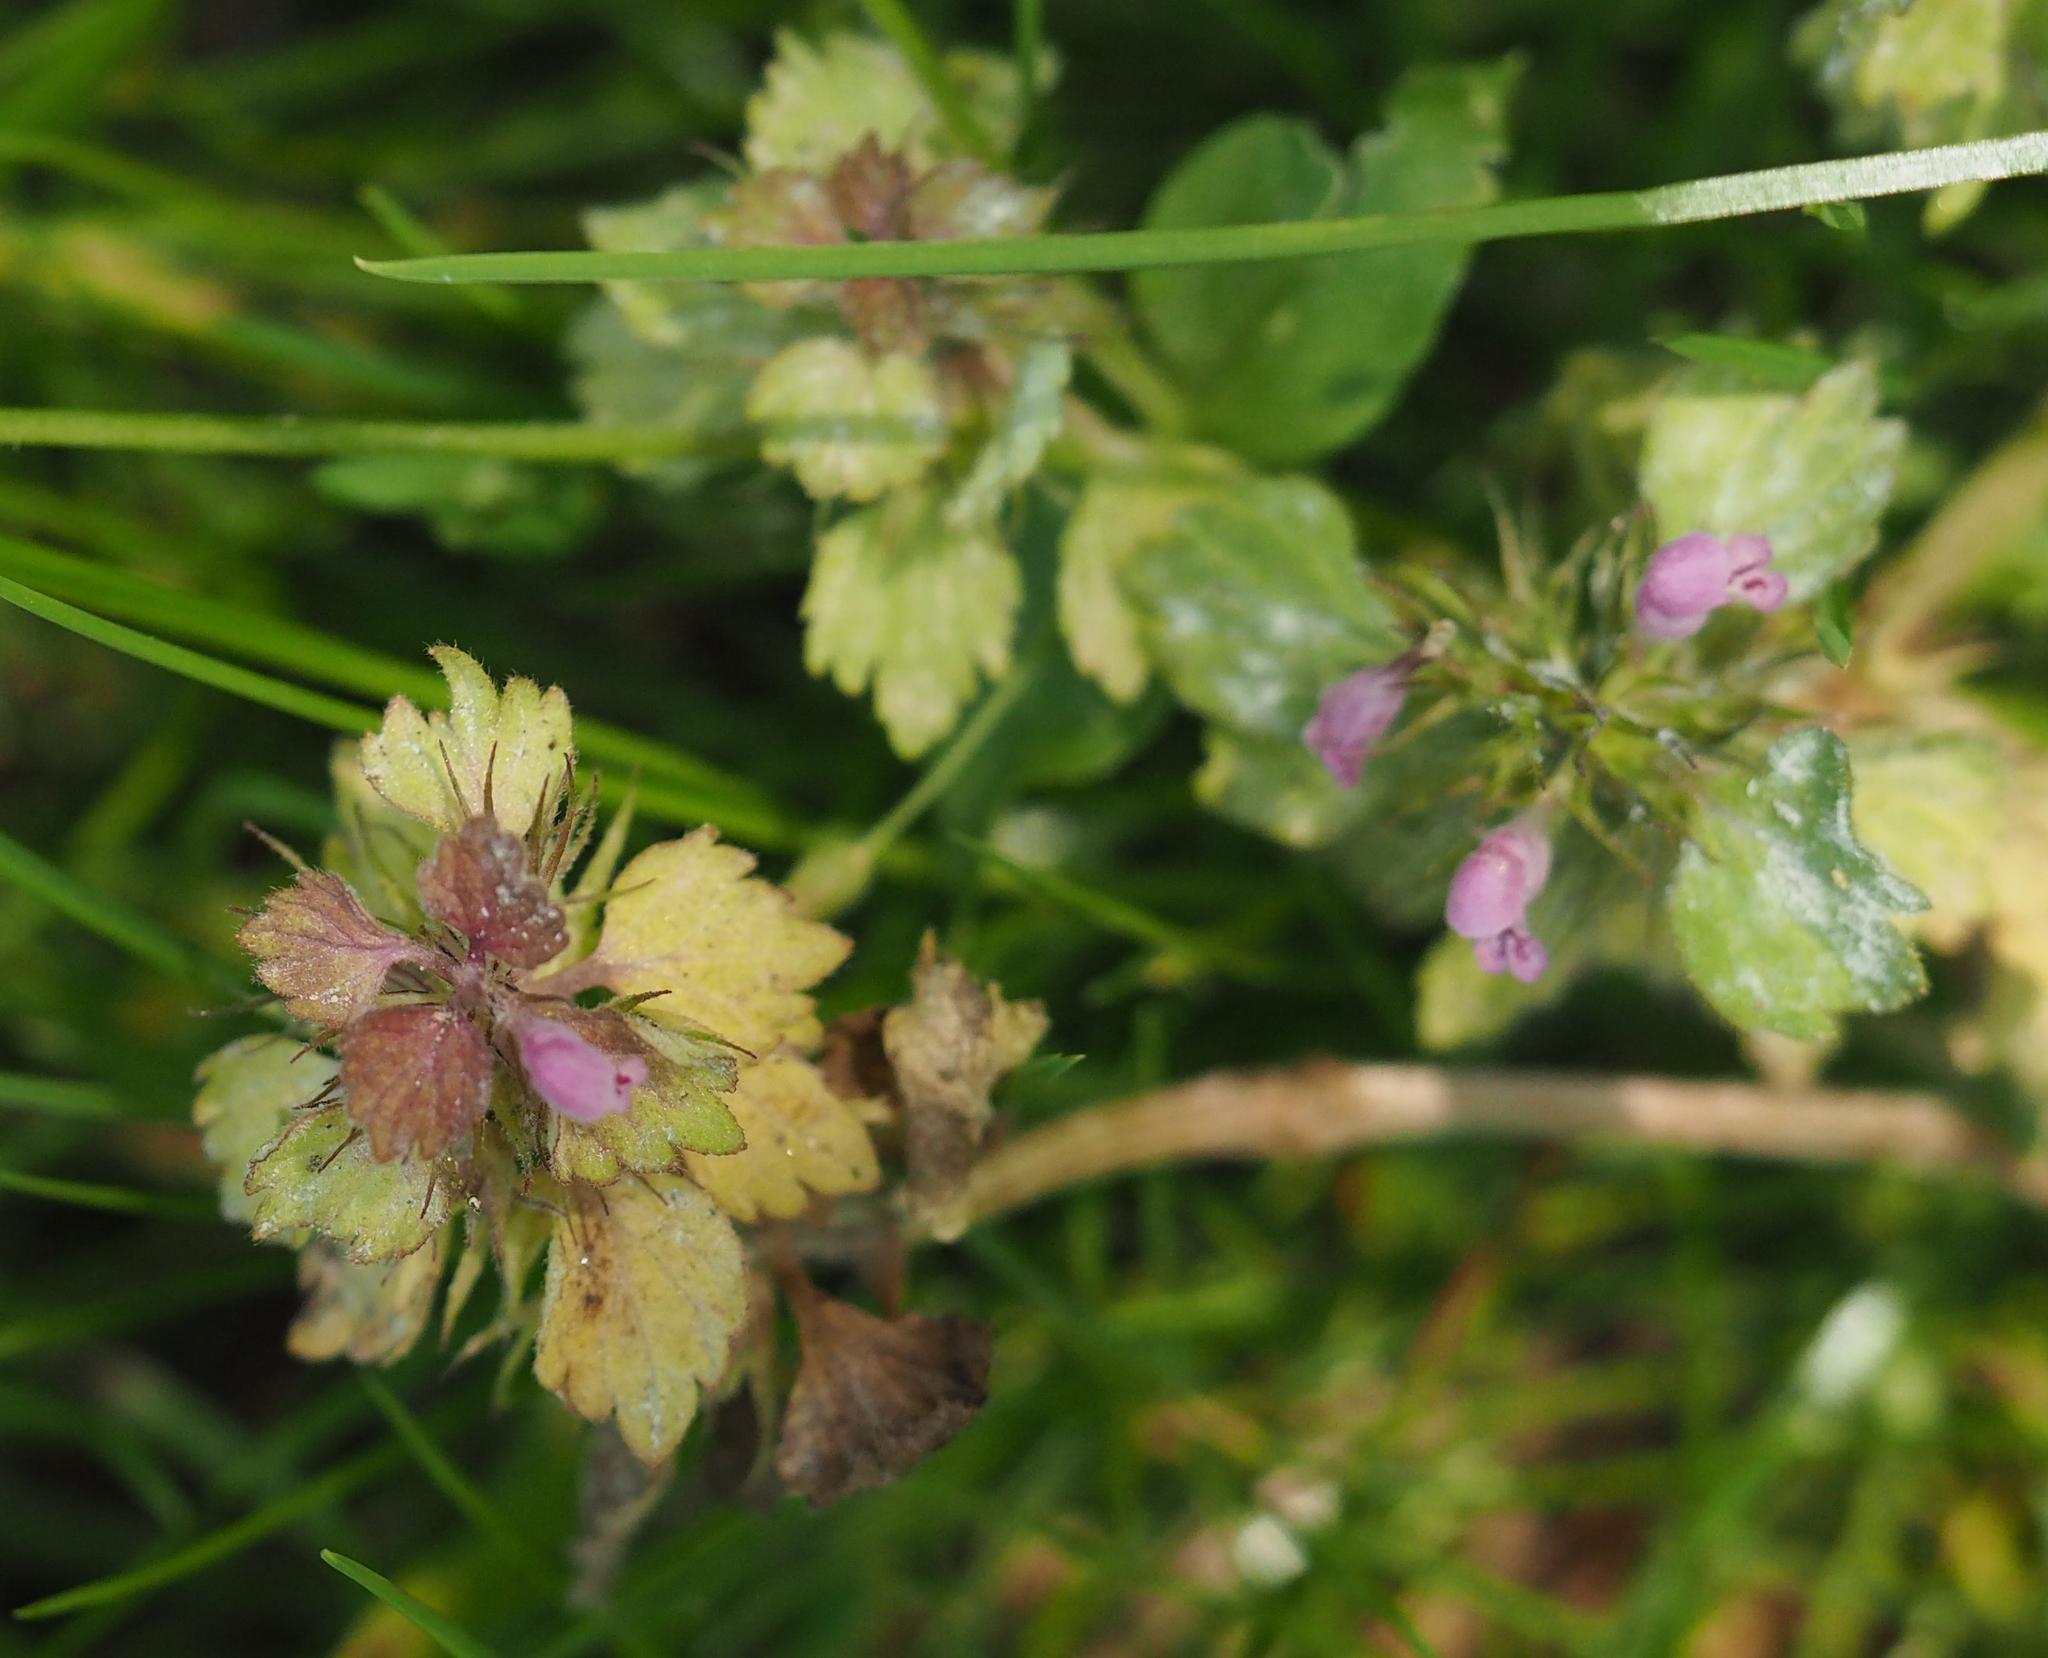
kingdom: Plantae
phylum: Tracheophyta
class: Magnoliopsida
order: Lamiales
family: Lamiaceae
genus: Lamium
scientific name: Lamium purpureum
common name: Red dead-nettle
